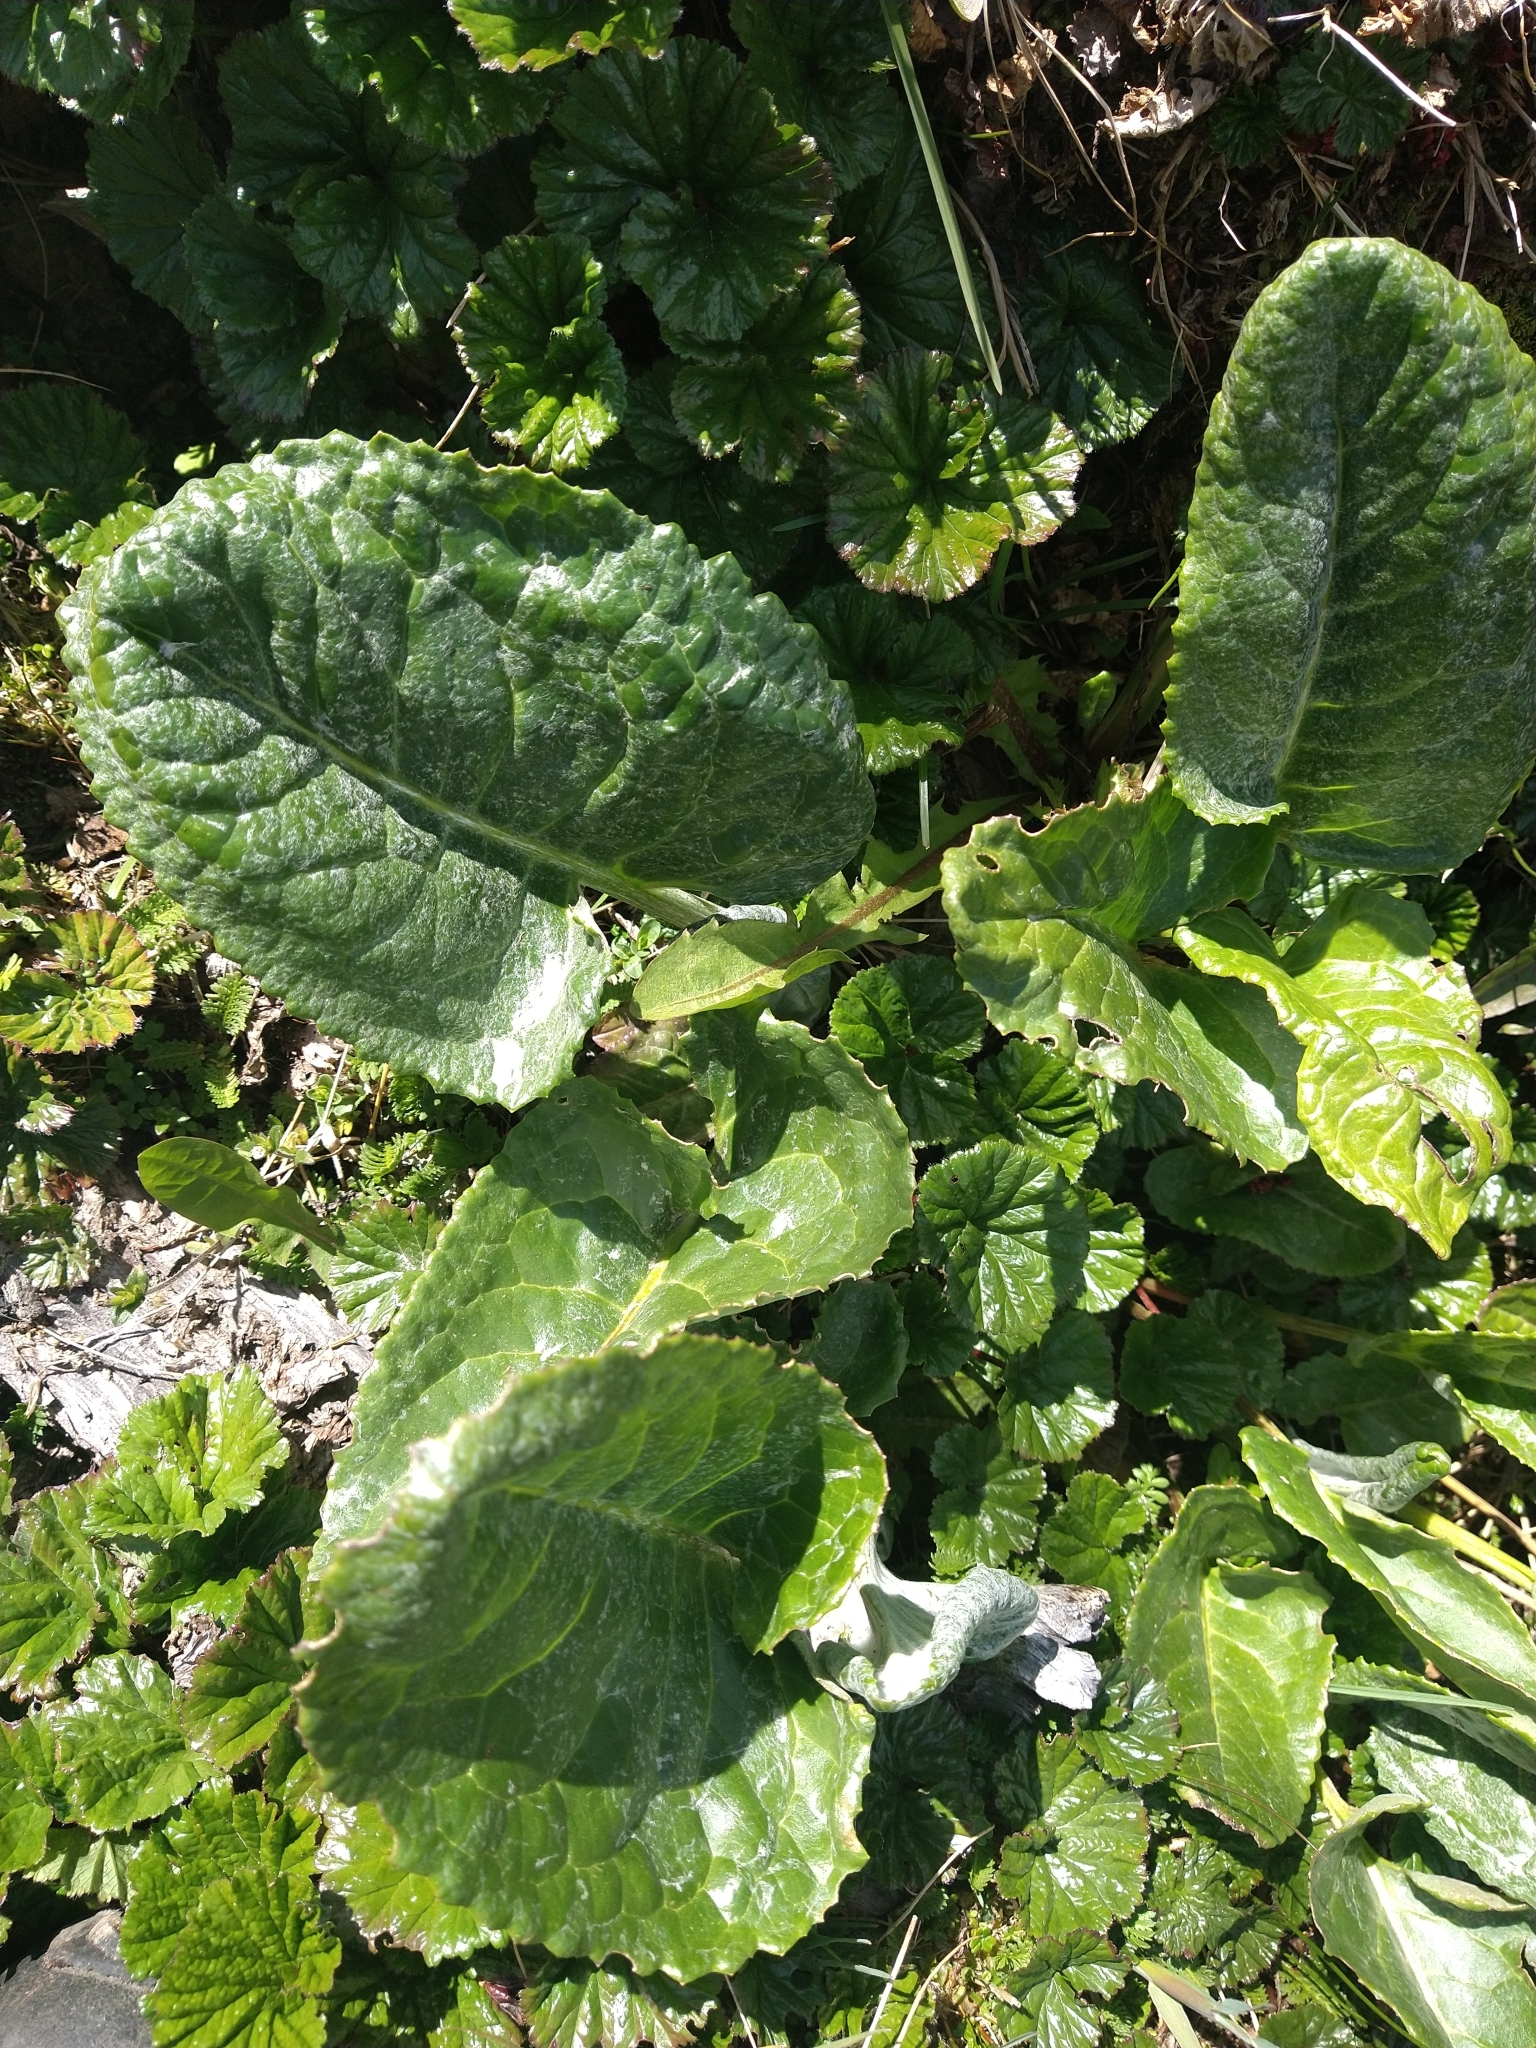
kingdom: Plantae
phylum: Tracheophyta
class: Magnoliopsida
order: Asterales
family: Asteraceae
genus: Senecio
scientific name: Senecio smithii
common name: Magellan ragwort
